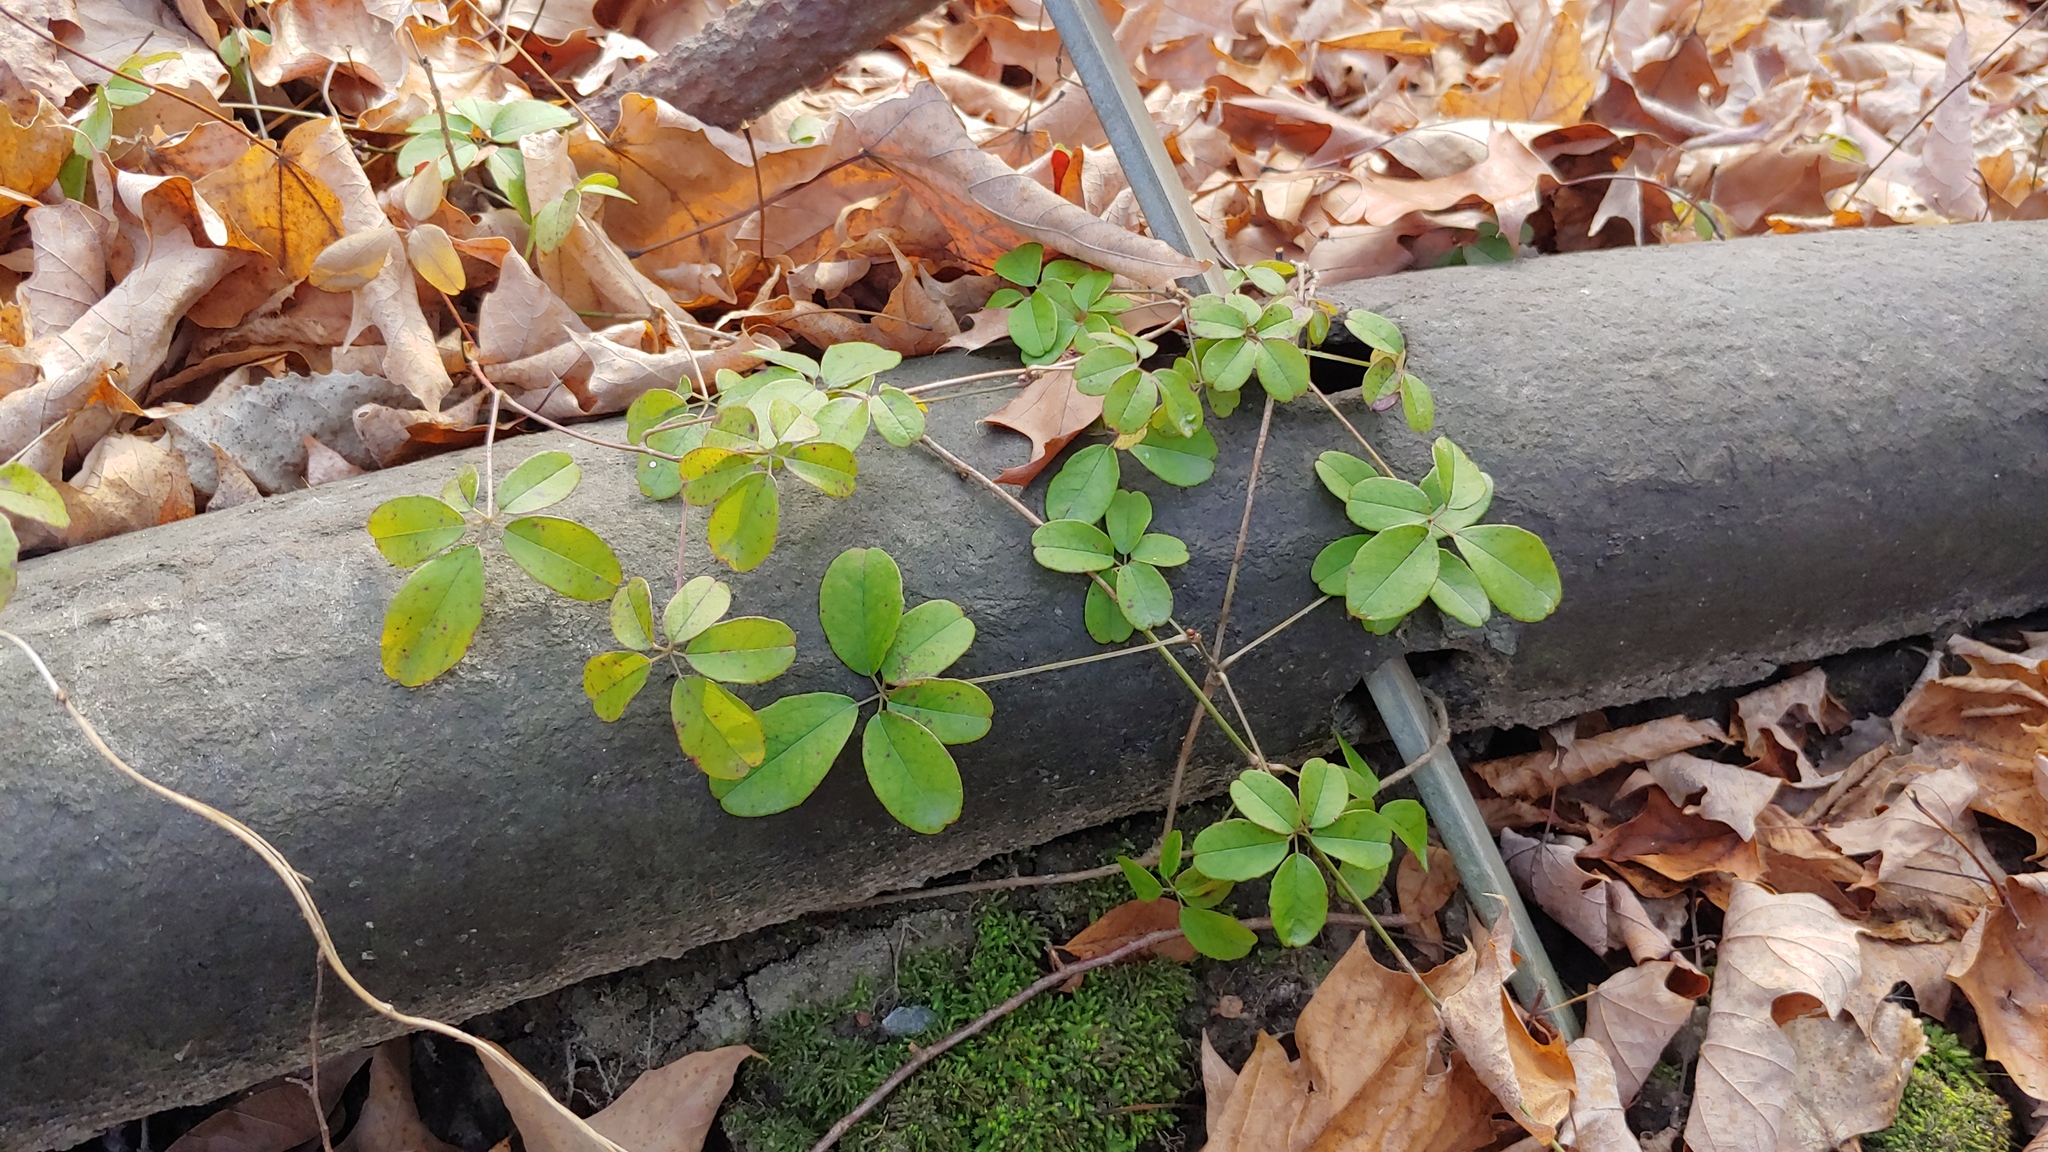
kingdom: Plantae
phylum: Tracheophyta
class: Magnoliopsida
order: Ranunculales
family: Lardizabalaceae
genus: Akebia
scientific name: Akebia quinata
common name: Five-leaf akebia
